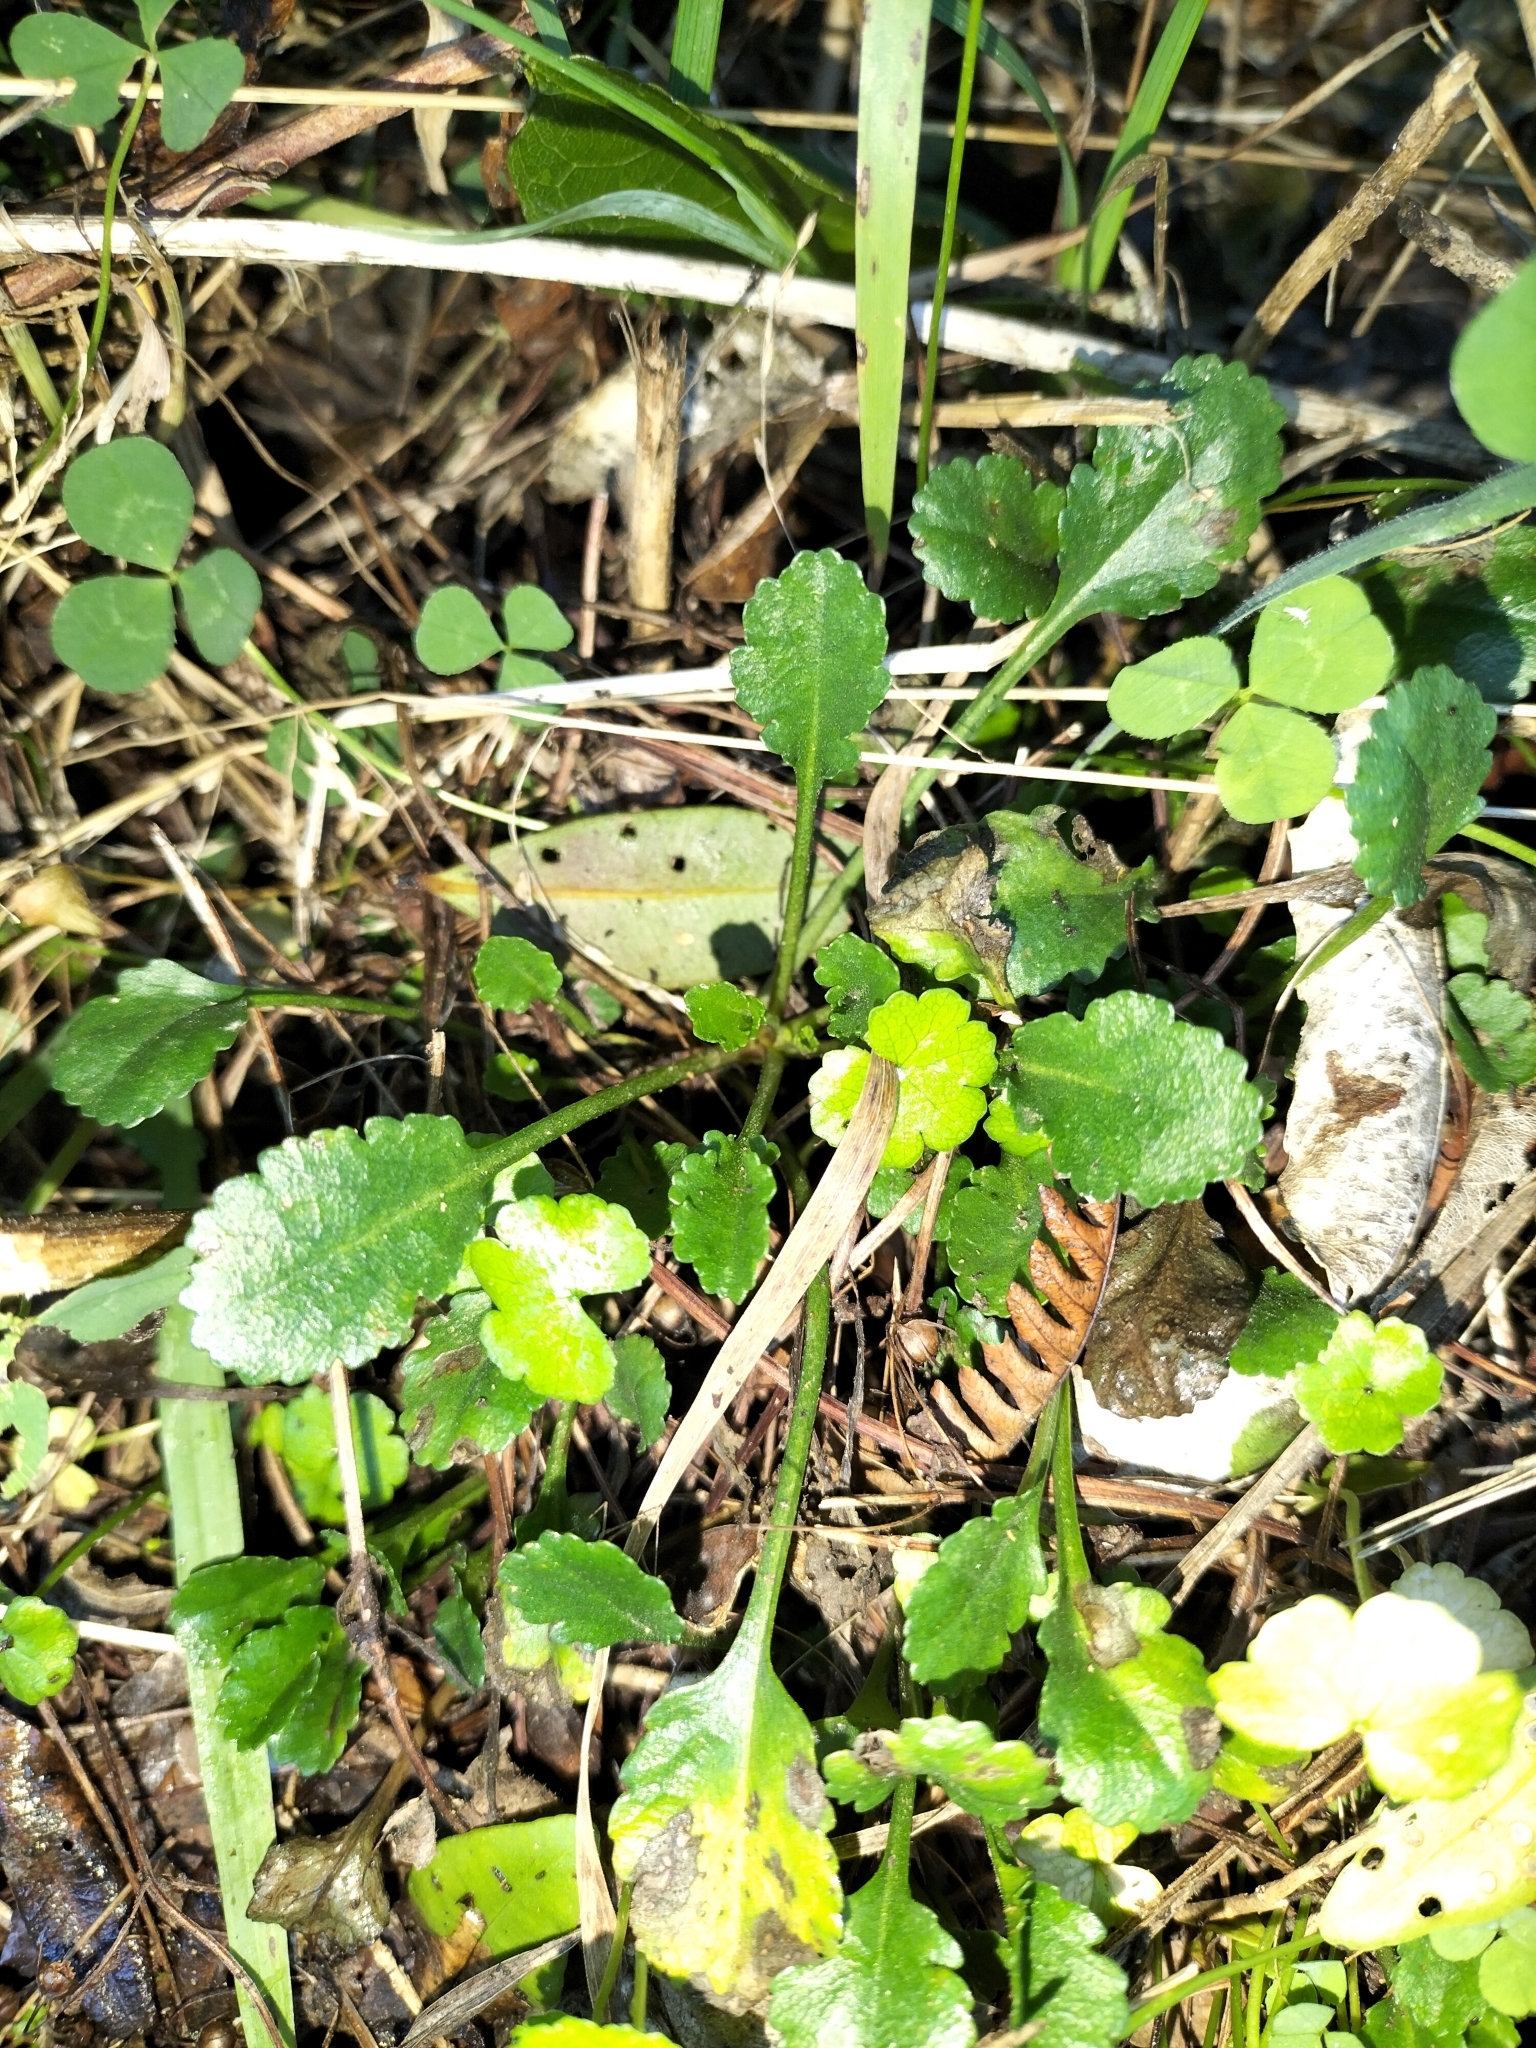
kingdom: Plantae
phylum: Tracheophyta
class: Magnoliopsida
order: Asterales
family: Asteraceae
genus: Leucanthemum
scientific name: Leucanthemum vulgare
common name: Oxeye daisy
